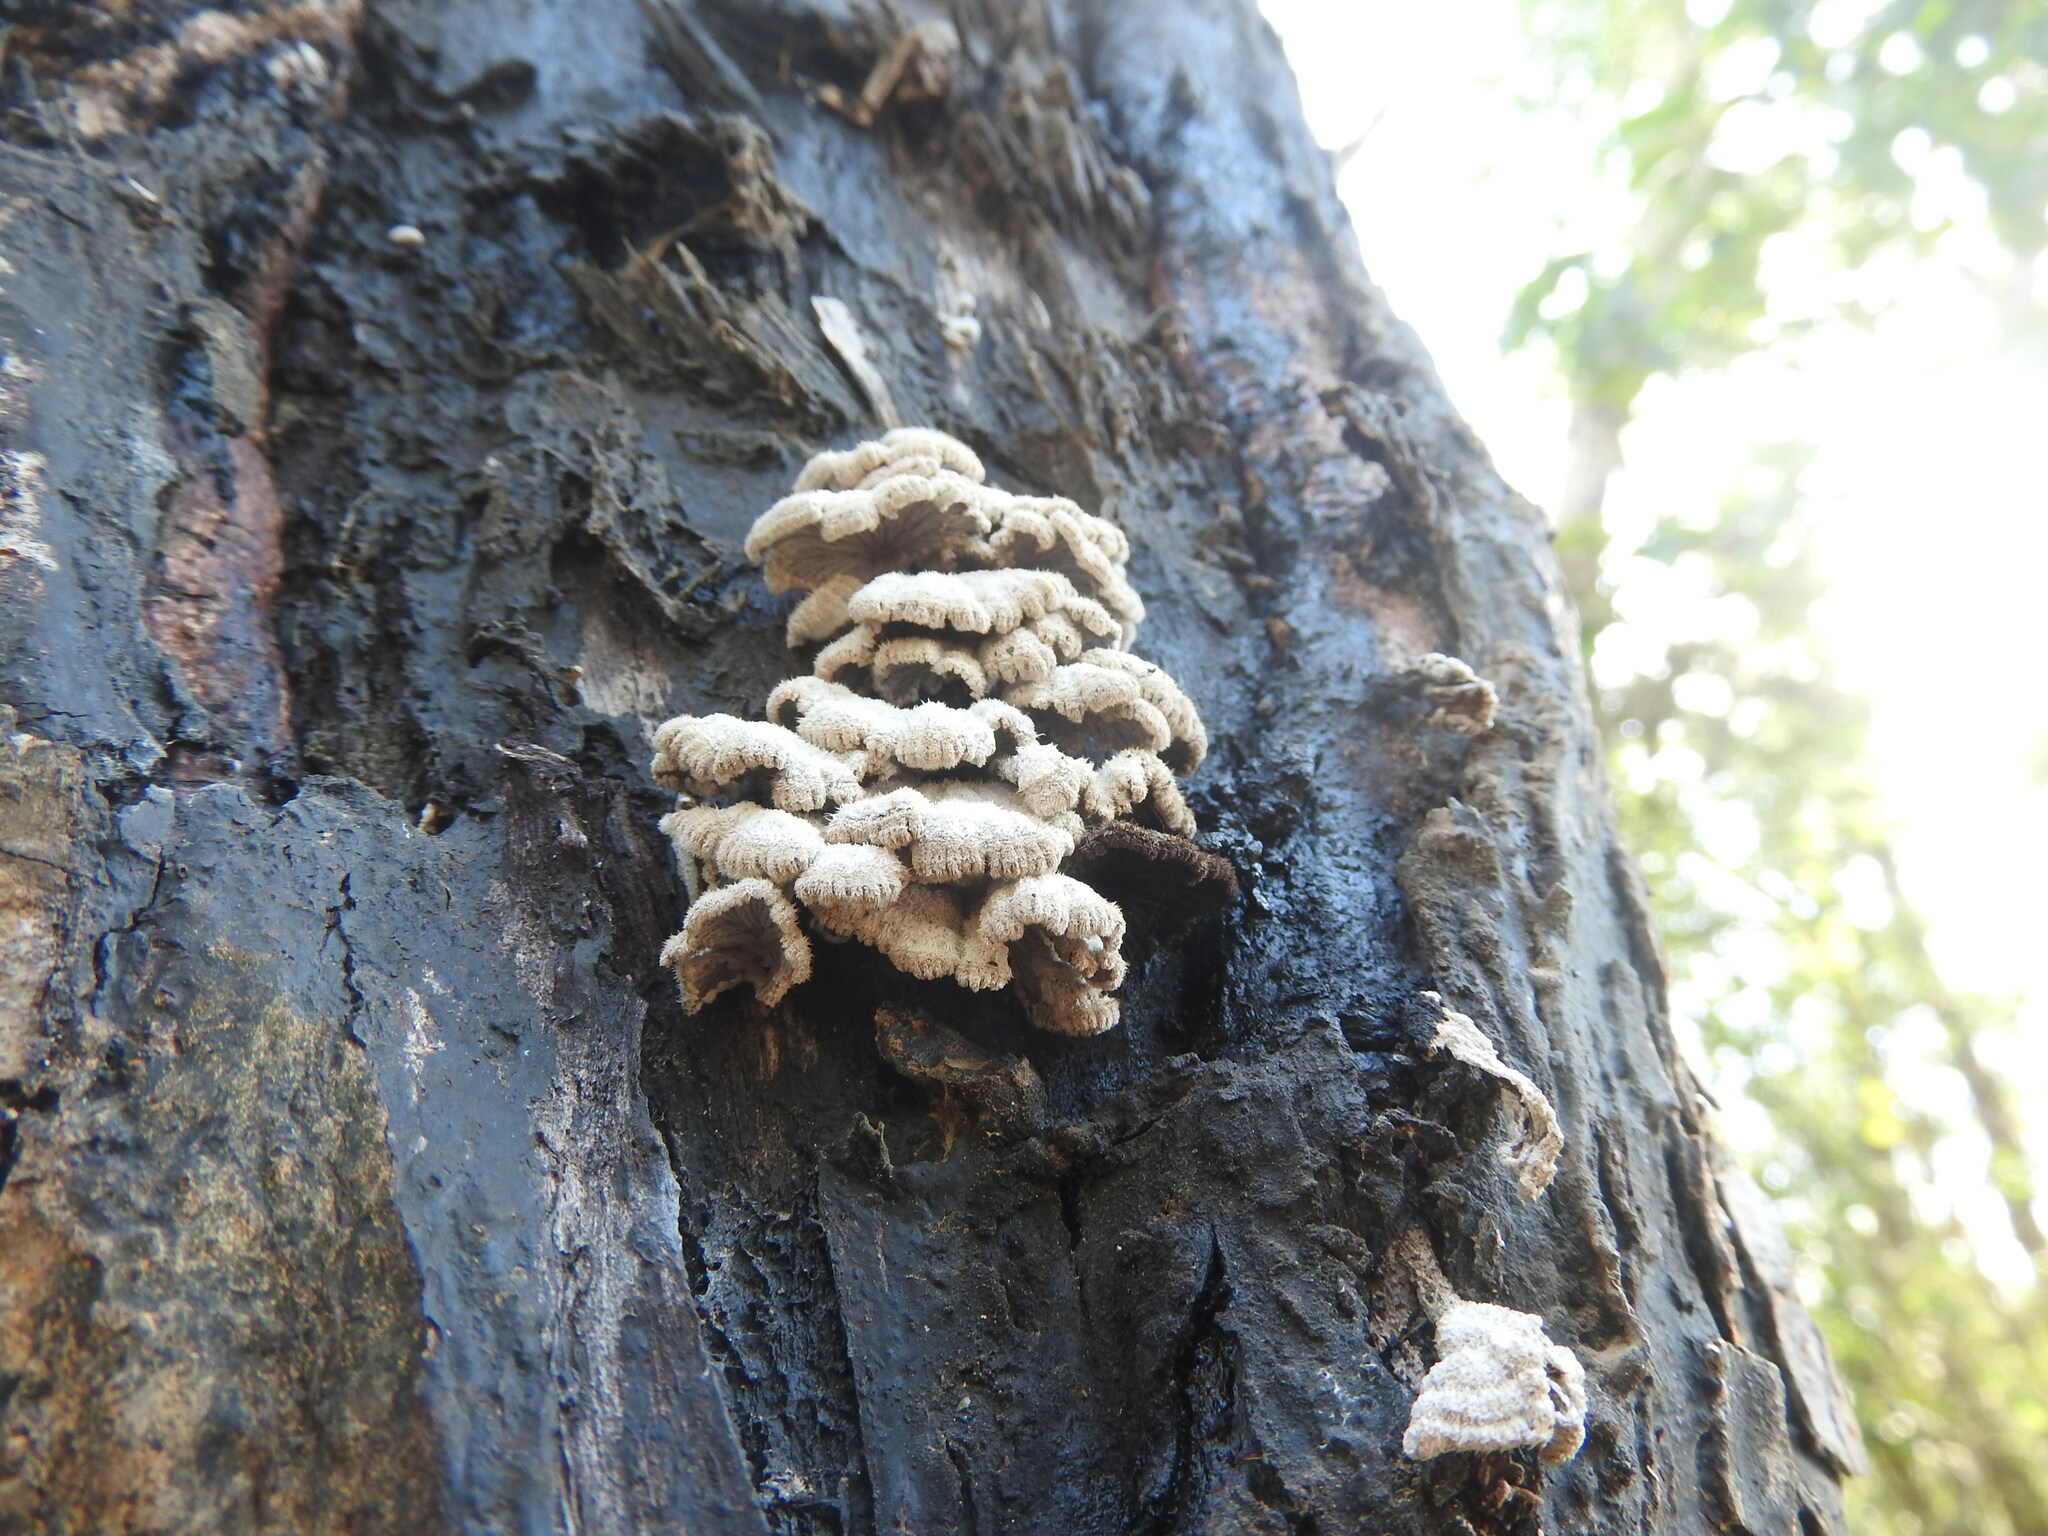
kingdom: Fungi
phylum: Basidiomycota
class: Agaricomycetes
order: Agaricales
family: Schizophyllaceae
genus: Schizophyllum
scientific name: Schizophyllum commune
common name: Common porecrust
